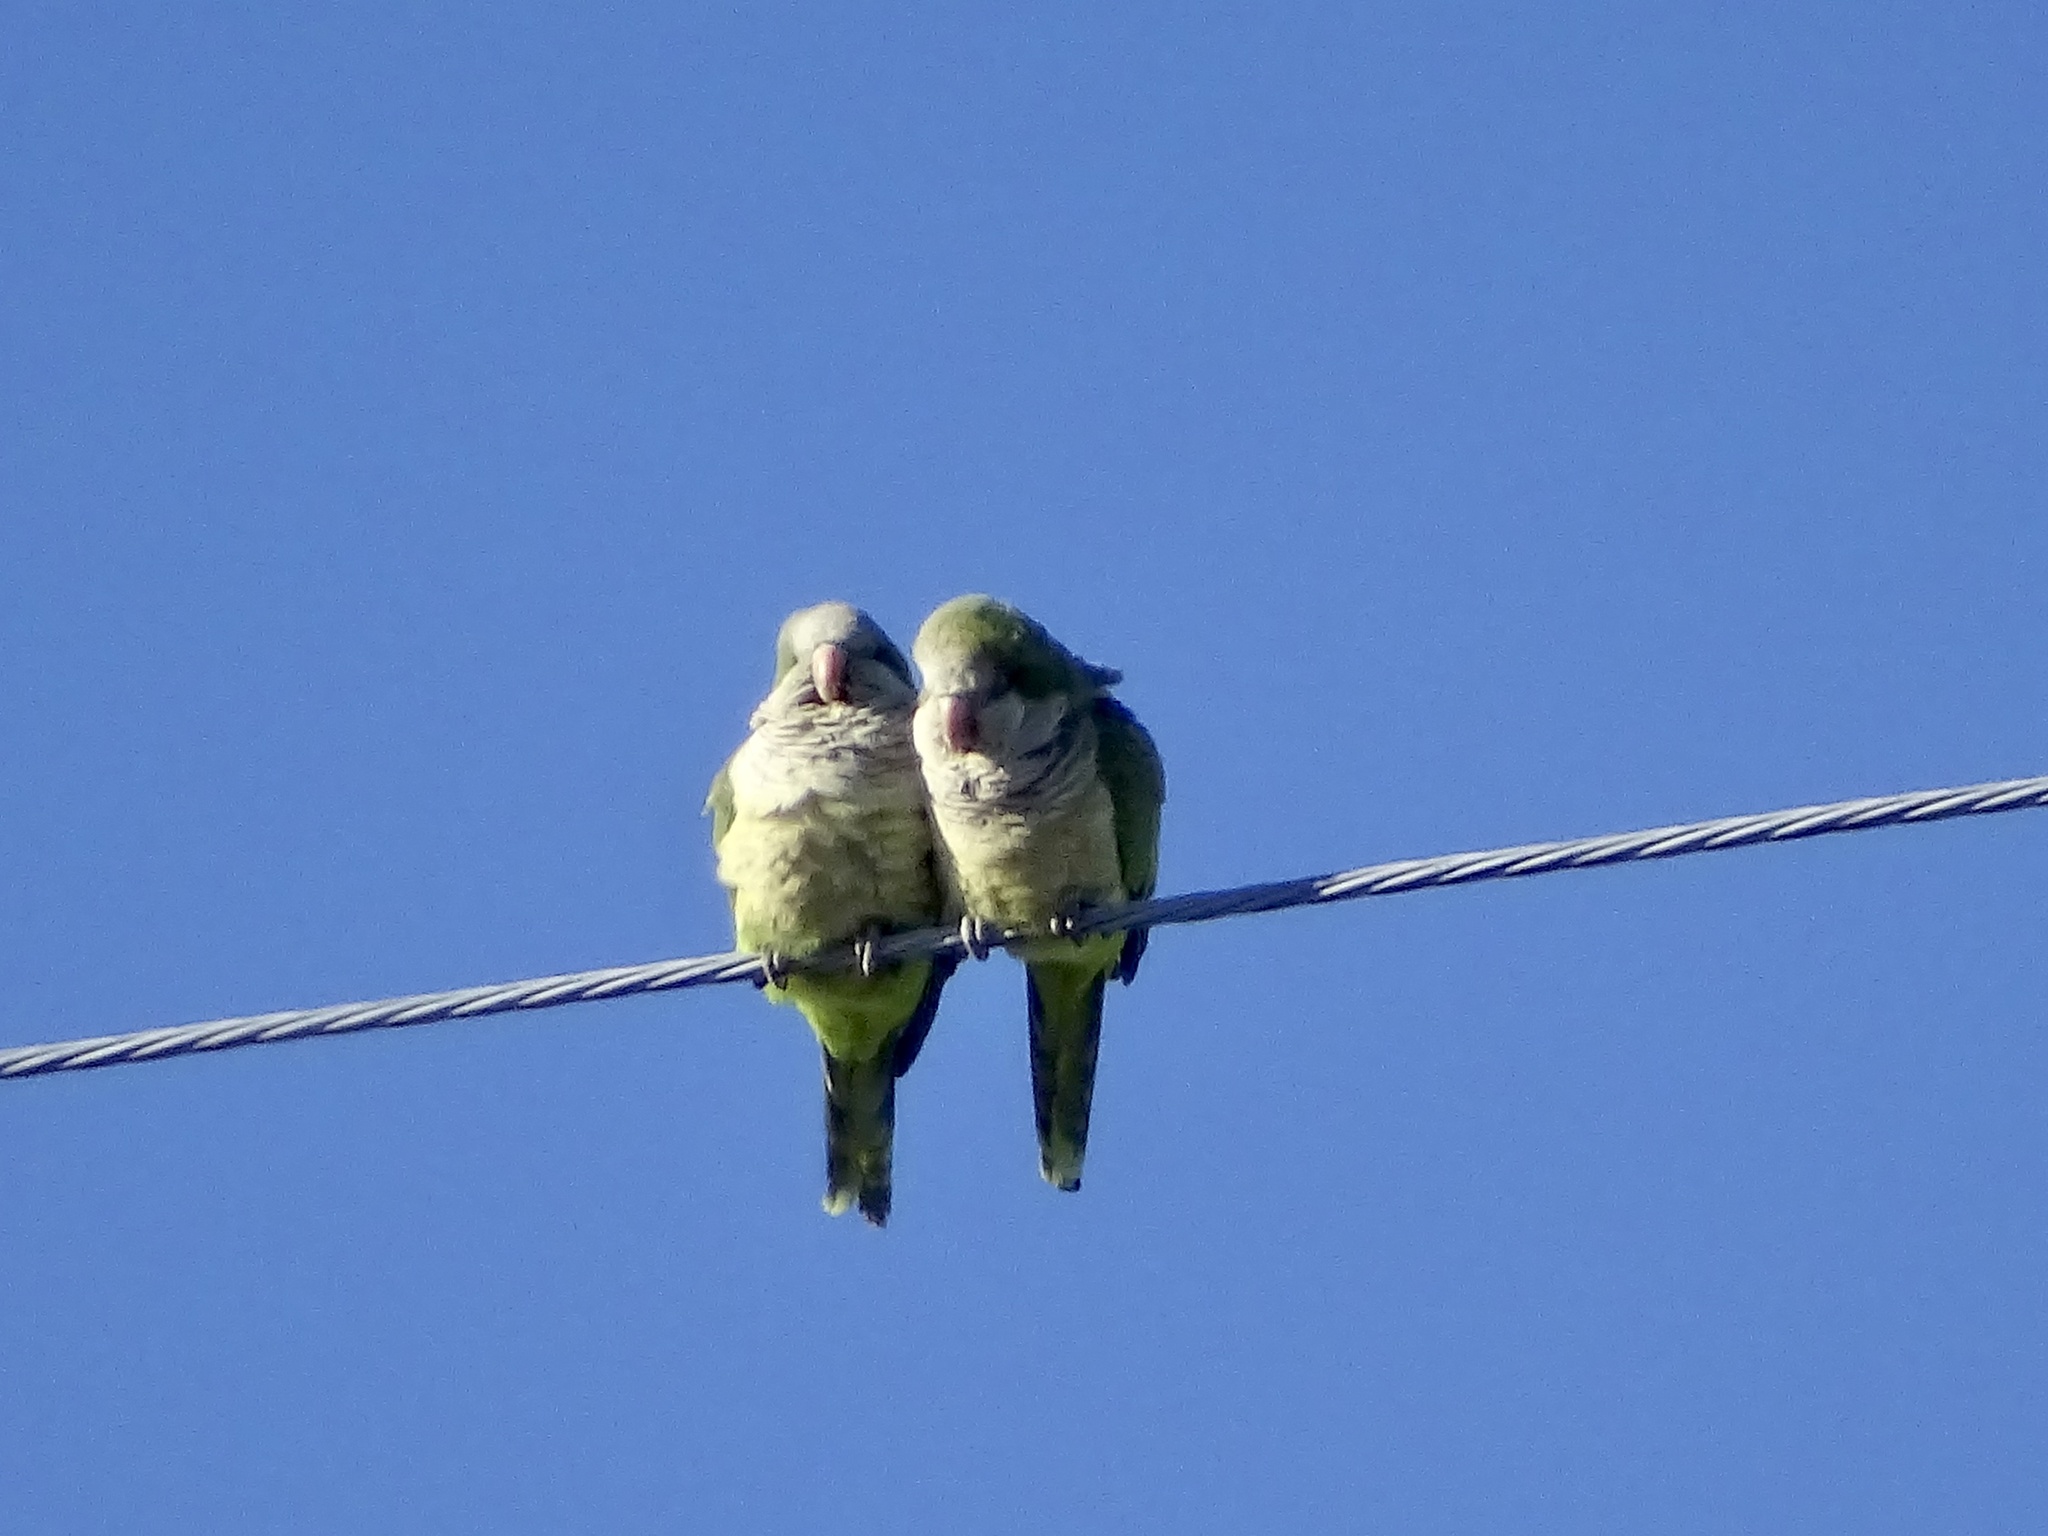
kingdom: Animalia
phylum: Chordata
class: Aves
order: Psittaciformes
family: Psittacidae
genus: Myiopsitta
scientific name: Myiopsitta monachus
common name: Monk parakeet
